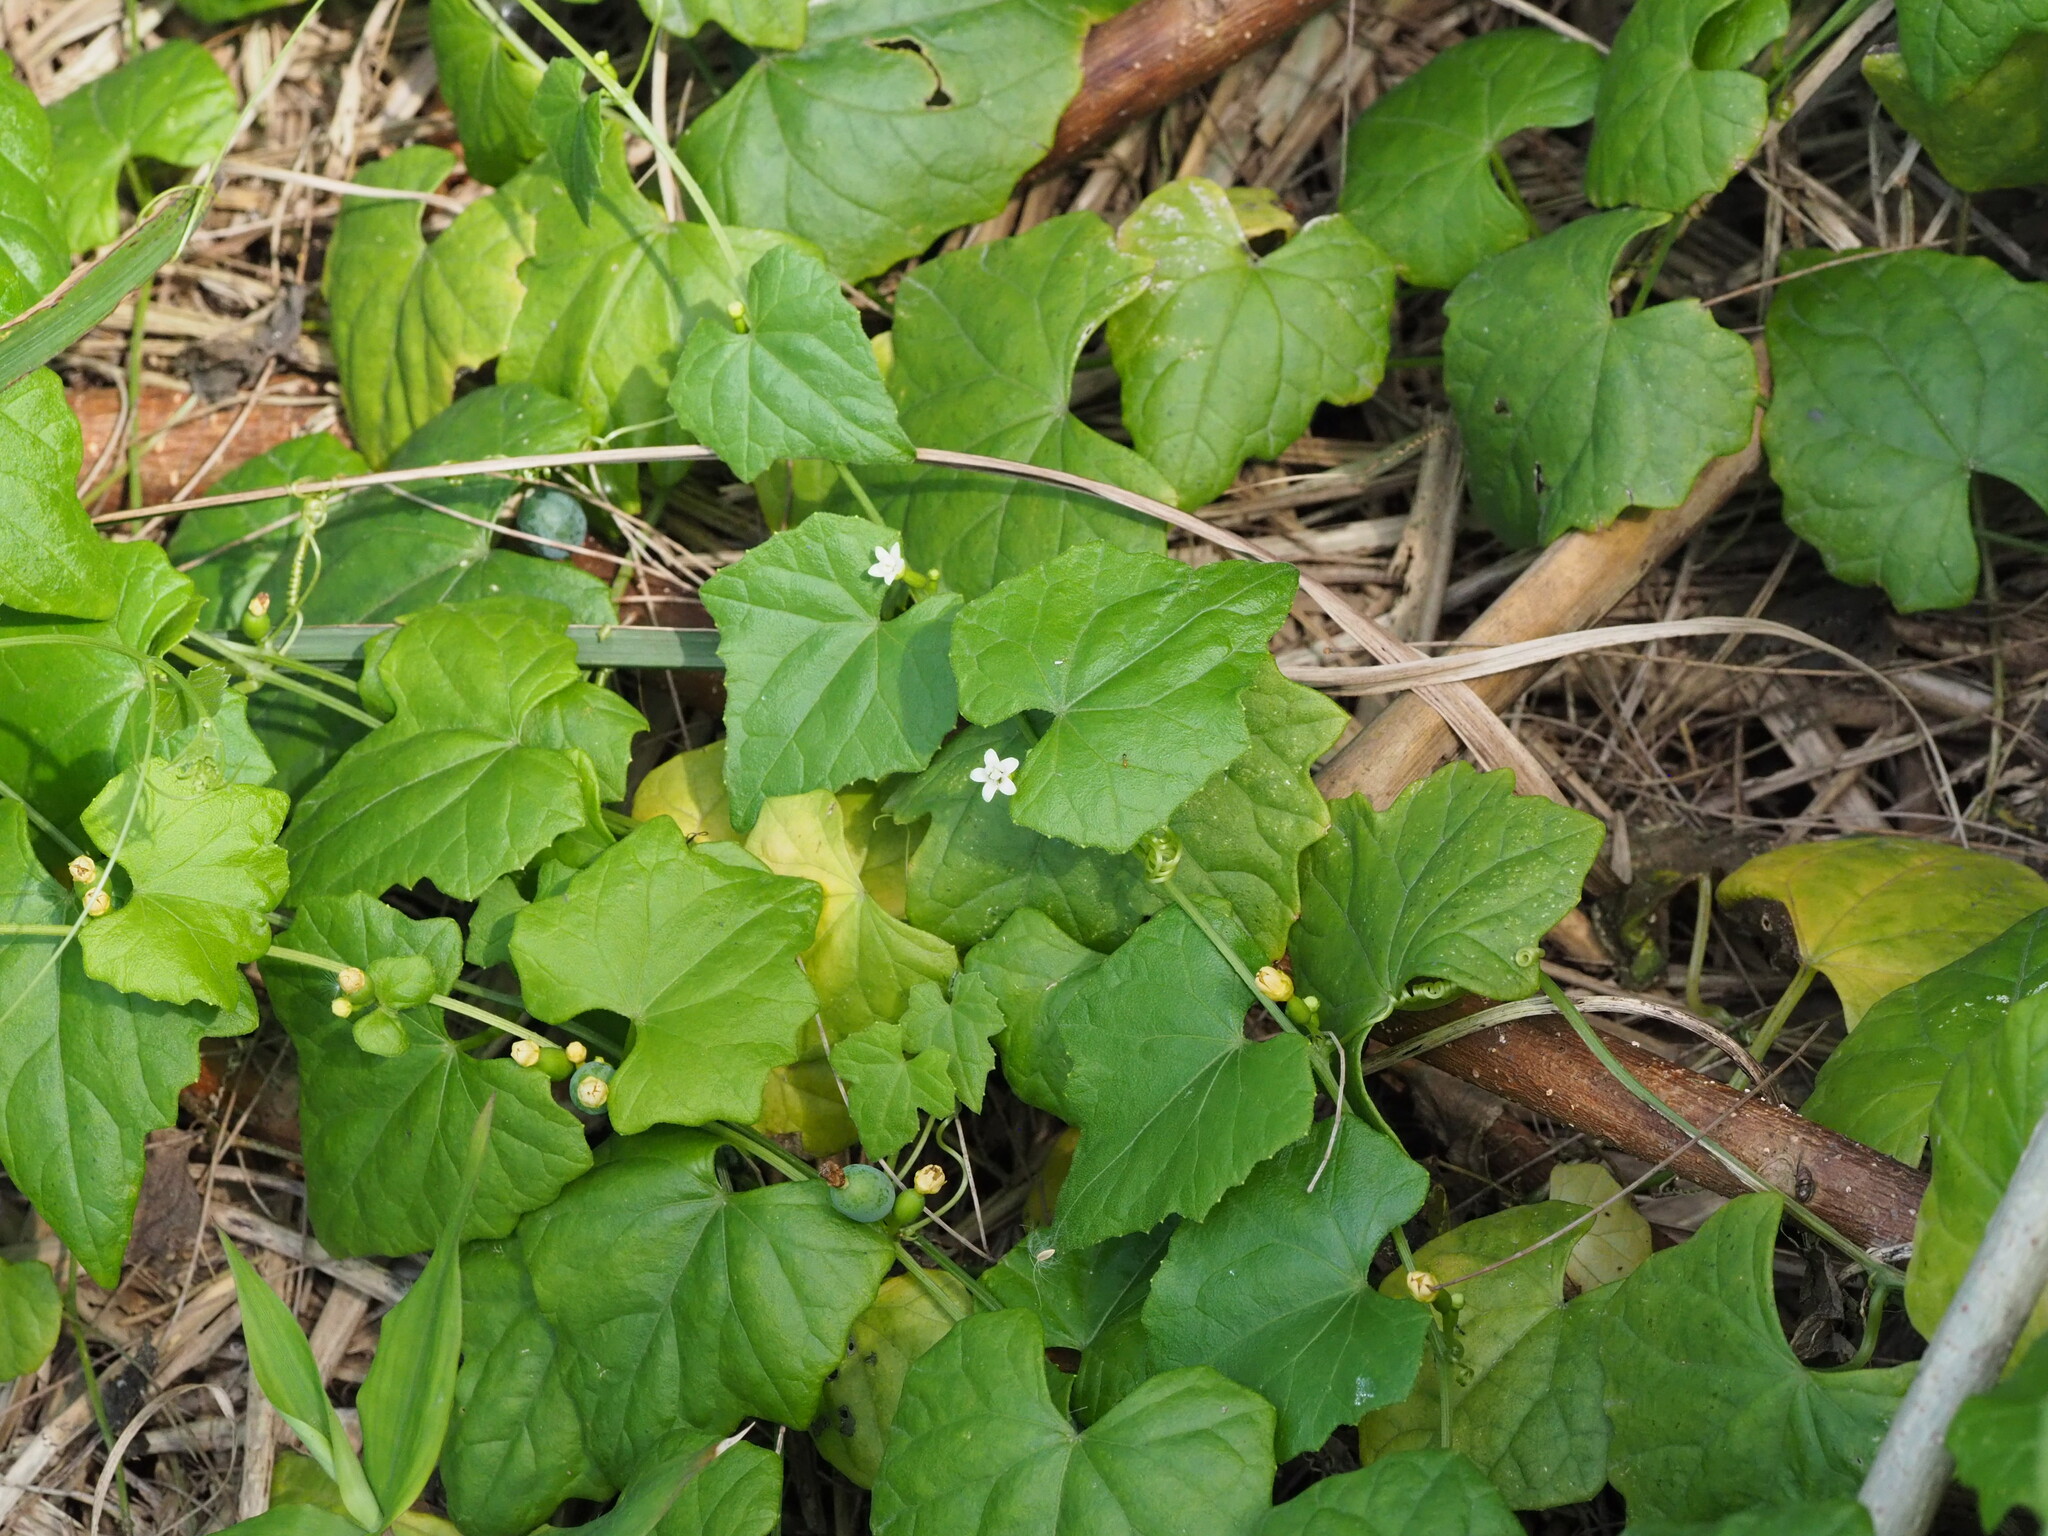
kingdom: Plantae
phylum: Tracheophyta
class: Magnoliopsida
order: Cucurbitales
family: Cucurbitaceae
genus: Zehneria
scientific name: Zehneria guamensis
